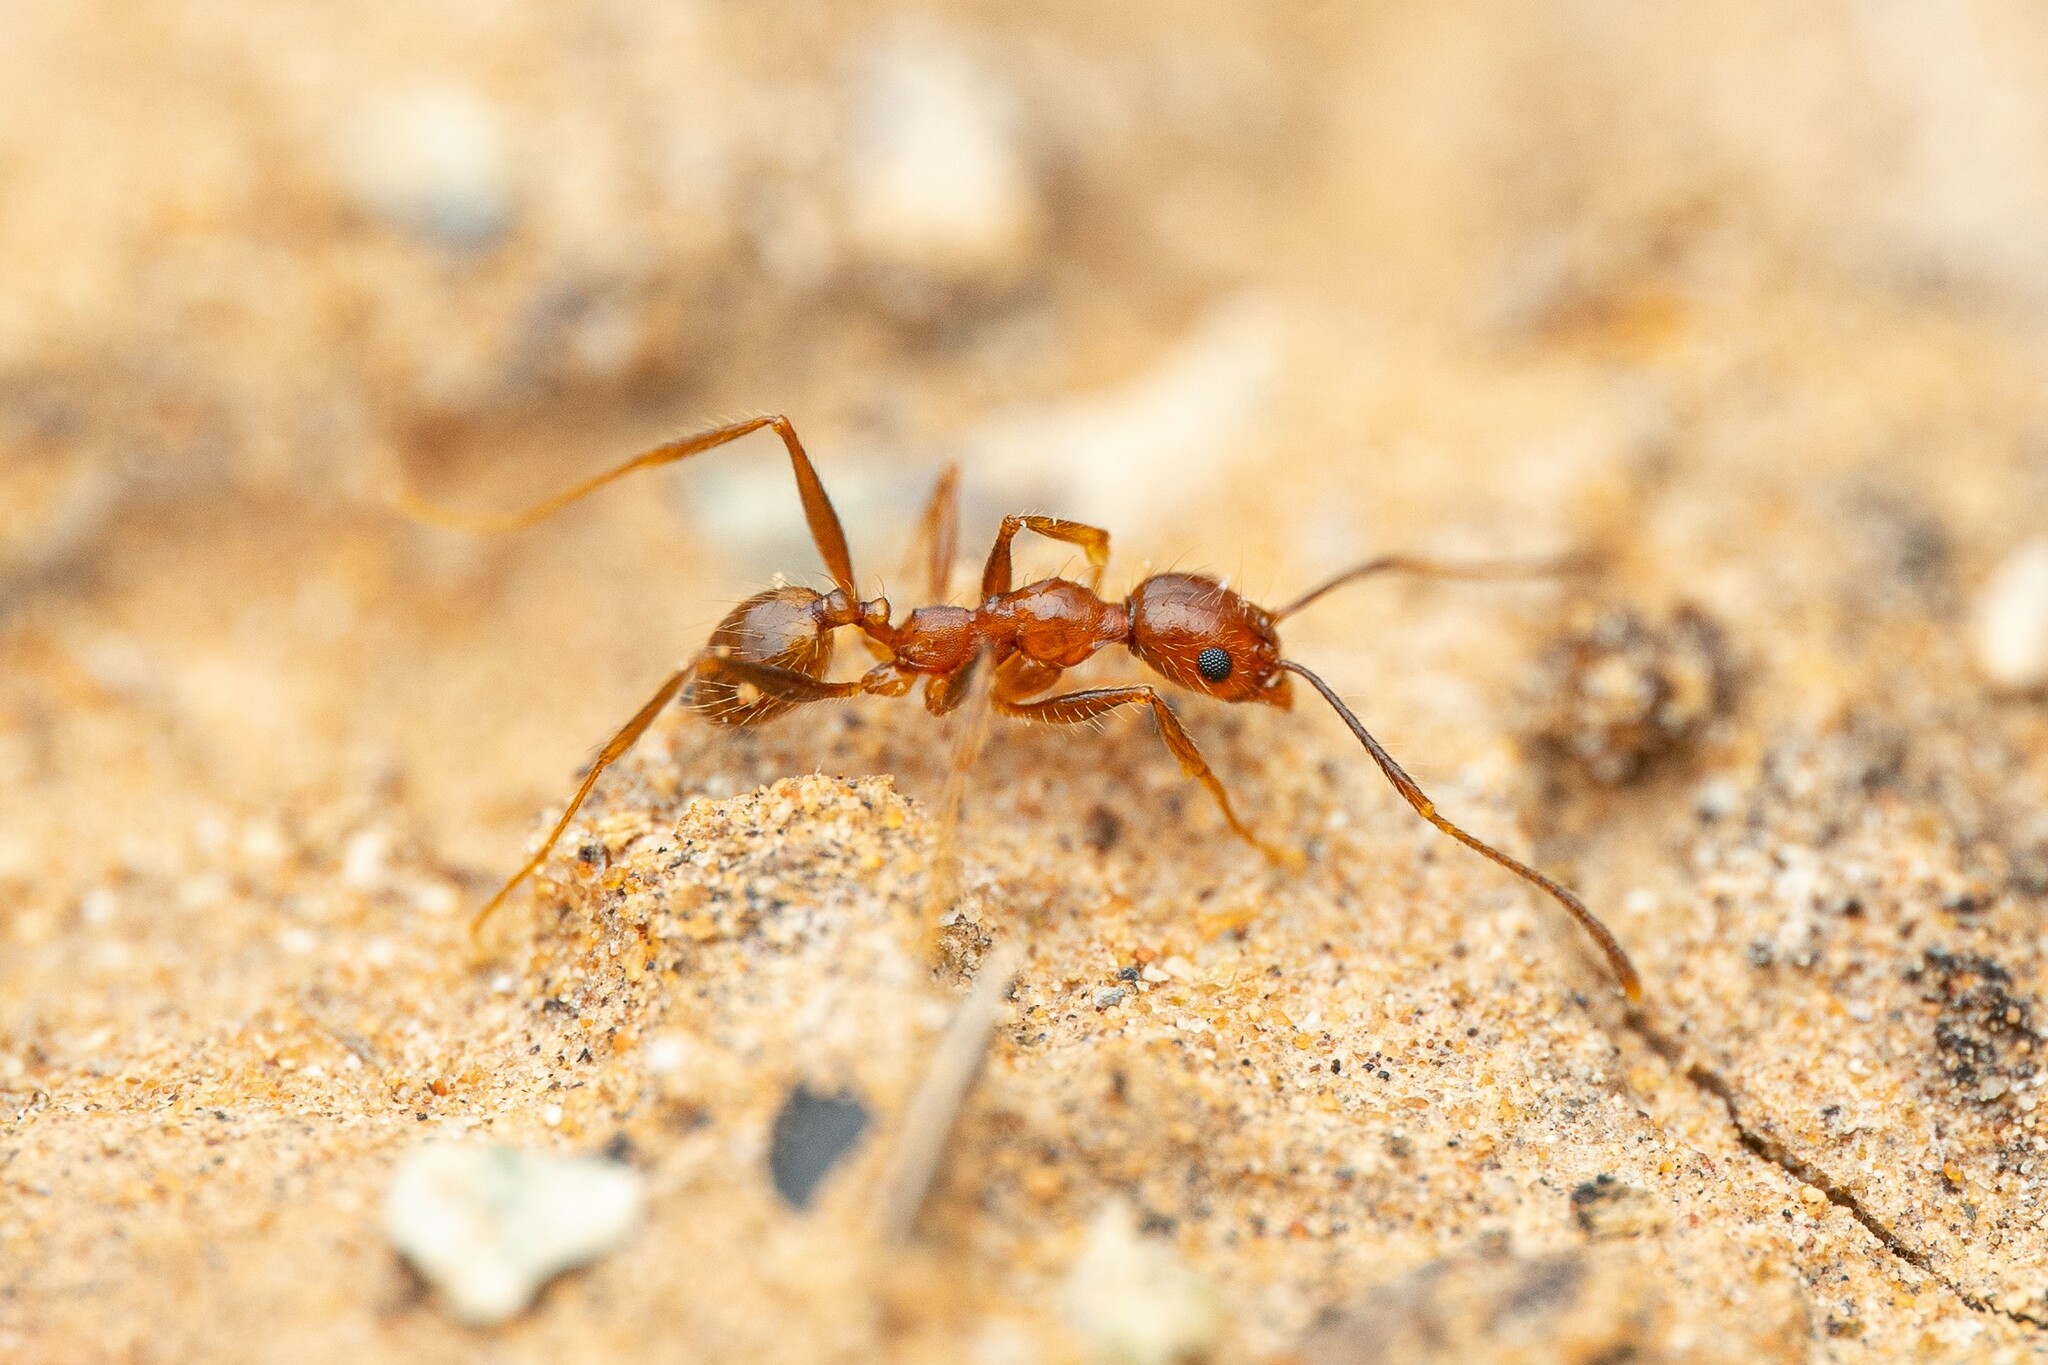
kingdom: Animalia
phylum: Arthropoda
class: Insecta
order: Hymenoptera
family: Formicidae
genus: Pheidole
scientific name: Pheidole hyatti
